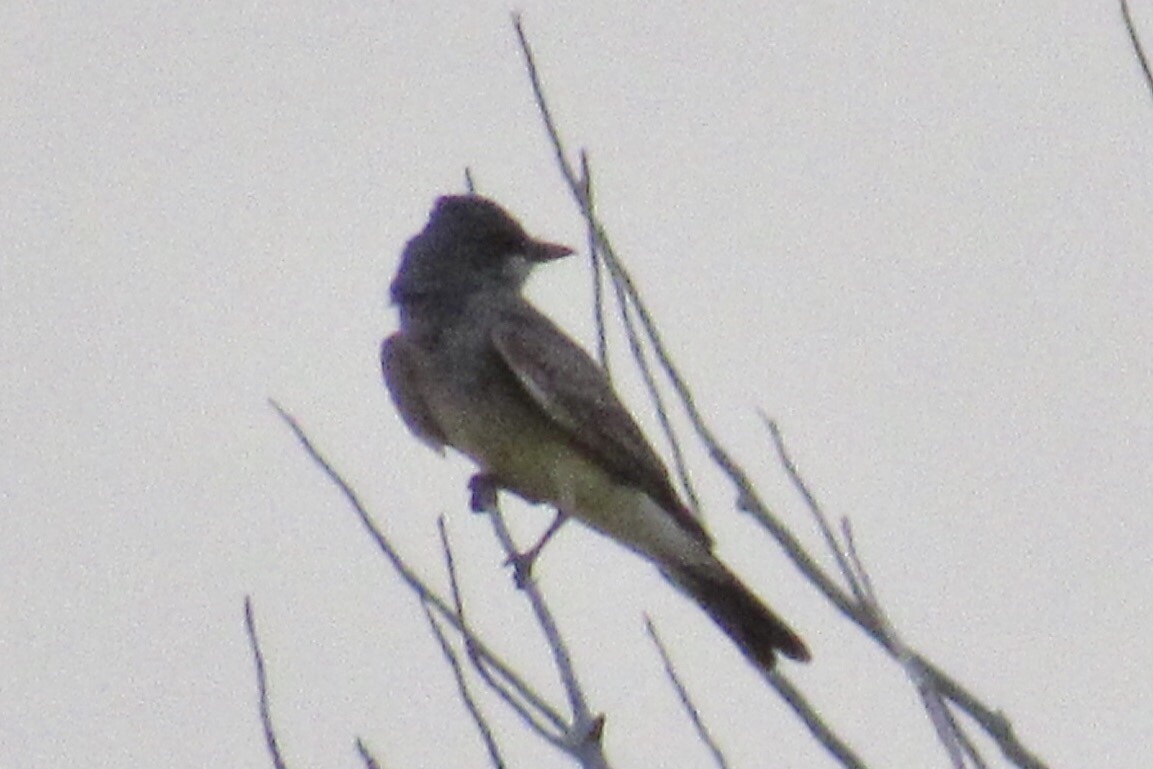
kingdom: Animalia
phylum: Chordata
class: Aves
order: Passeriformes
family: Tyrannidae
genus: Tyrannus
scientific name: Tyrannus vociferans
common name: Cassin's kingbird
